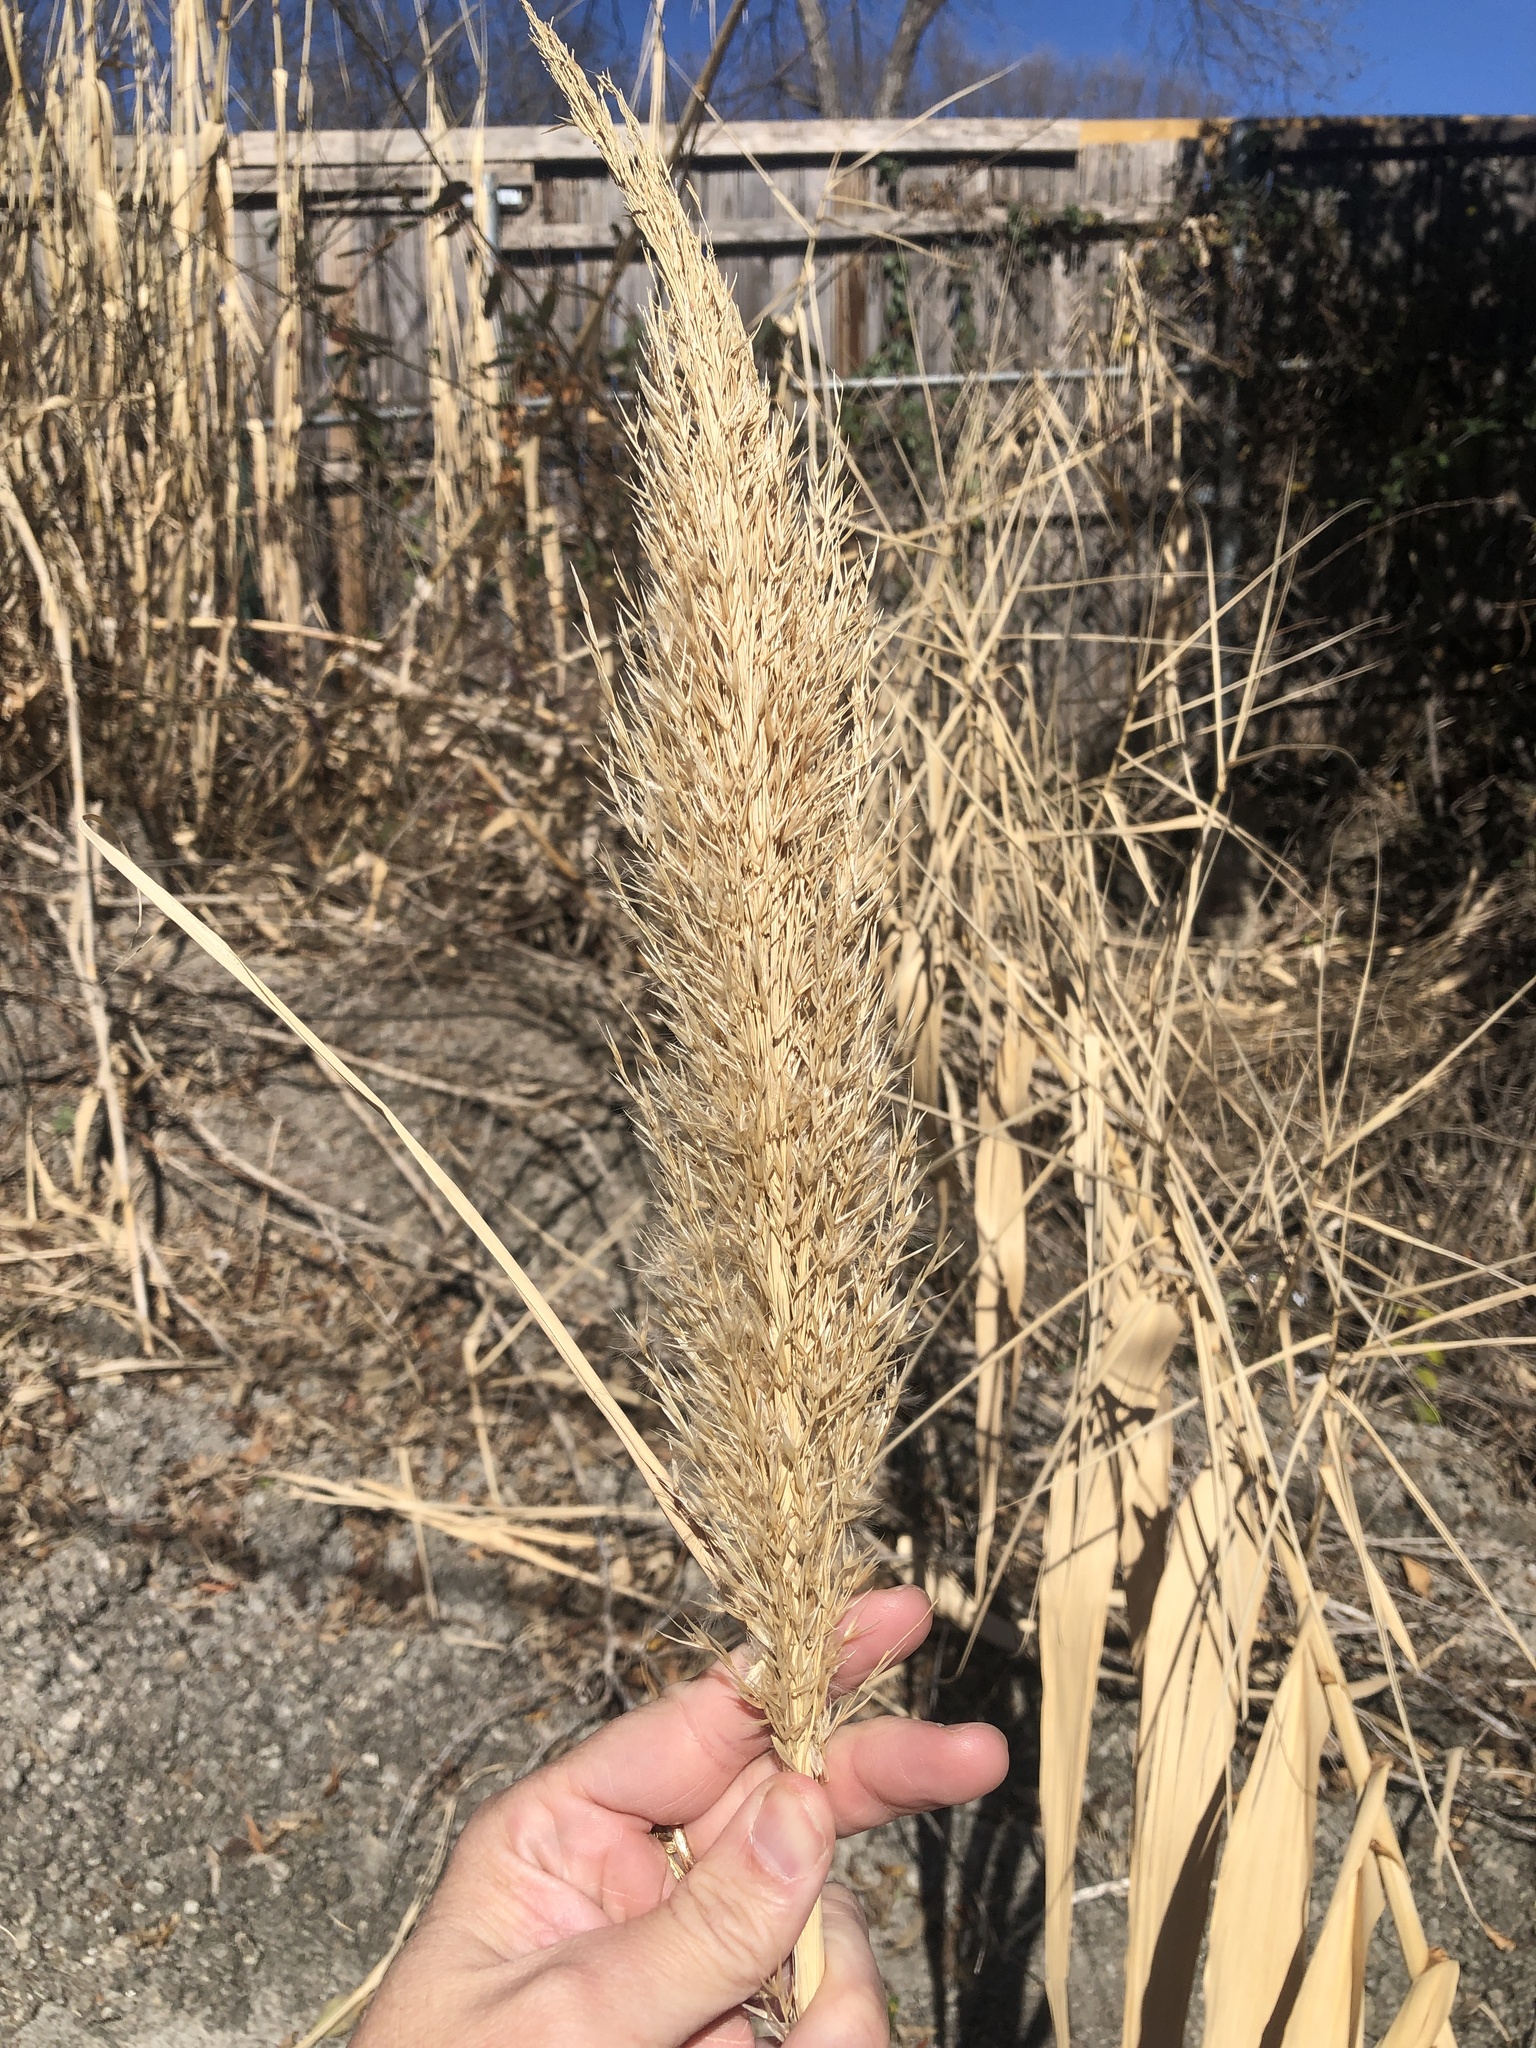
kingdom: Plantae
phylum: Tracheophyta
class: Liliopsida
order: Poales
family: Poaceae
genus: Arundo
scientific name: Arundo donax
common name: Giant reed
